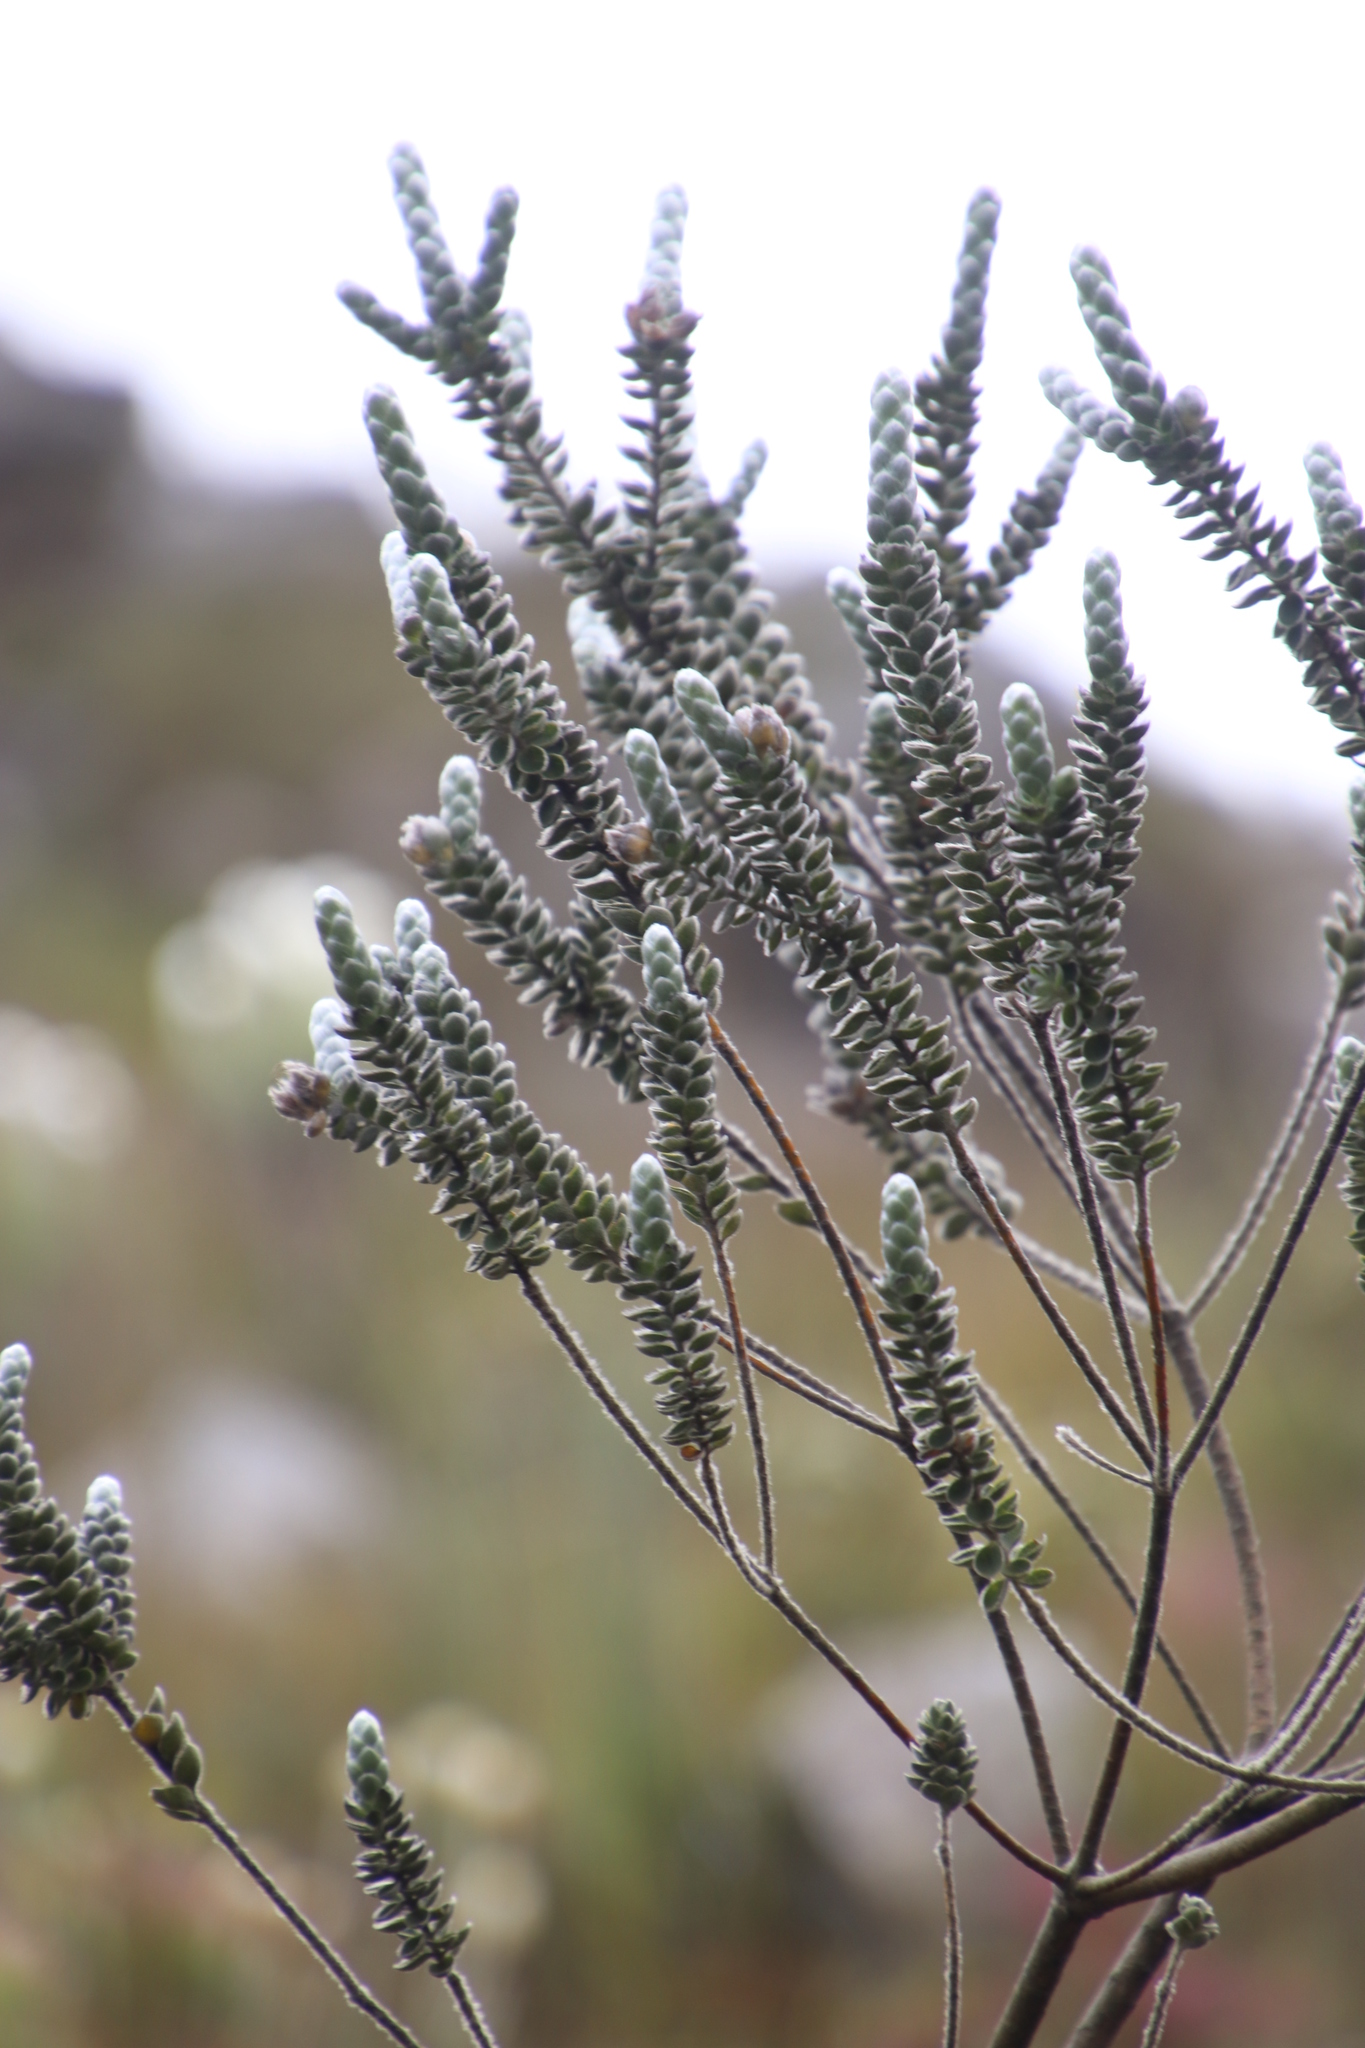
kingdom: Plantae
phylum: Tracheophyta
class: Magnoliopsida
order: Fabales
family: Fabaceae
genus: Liparia
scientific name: Liparia vestita
